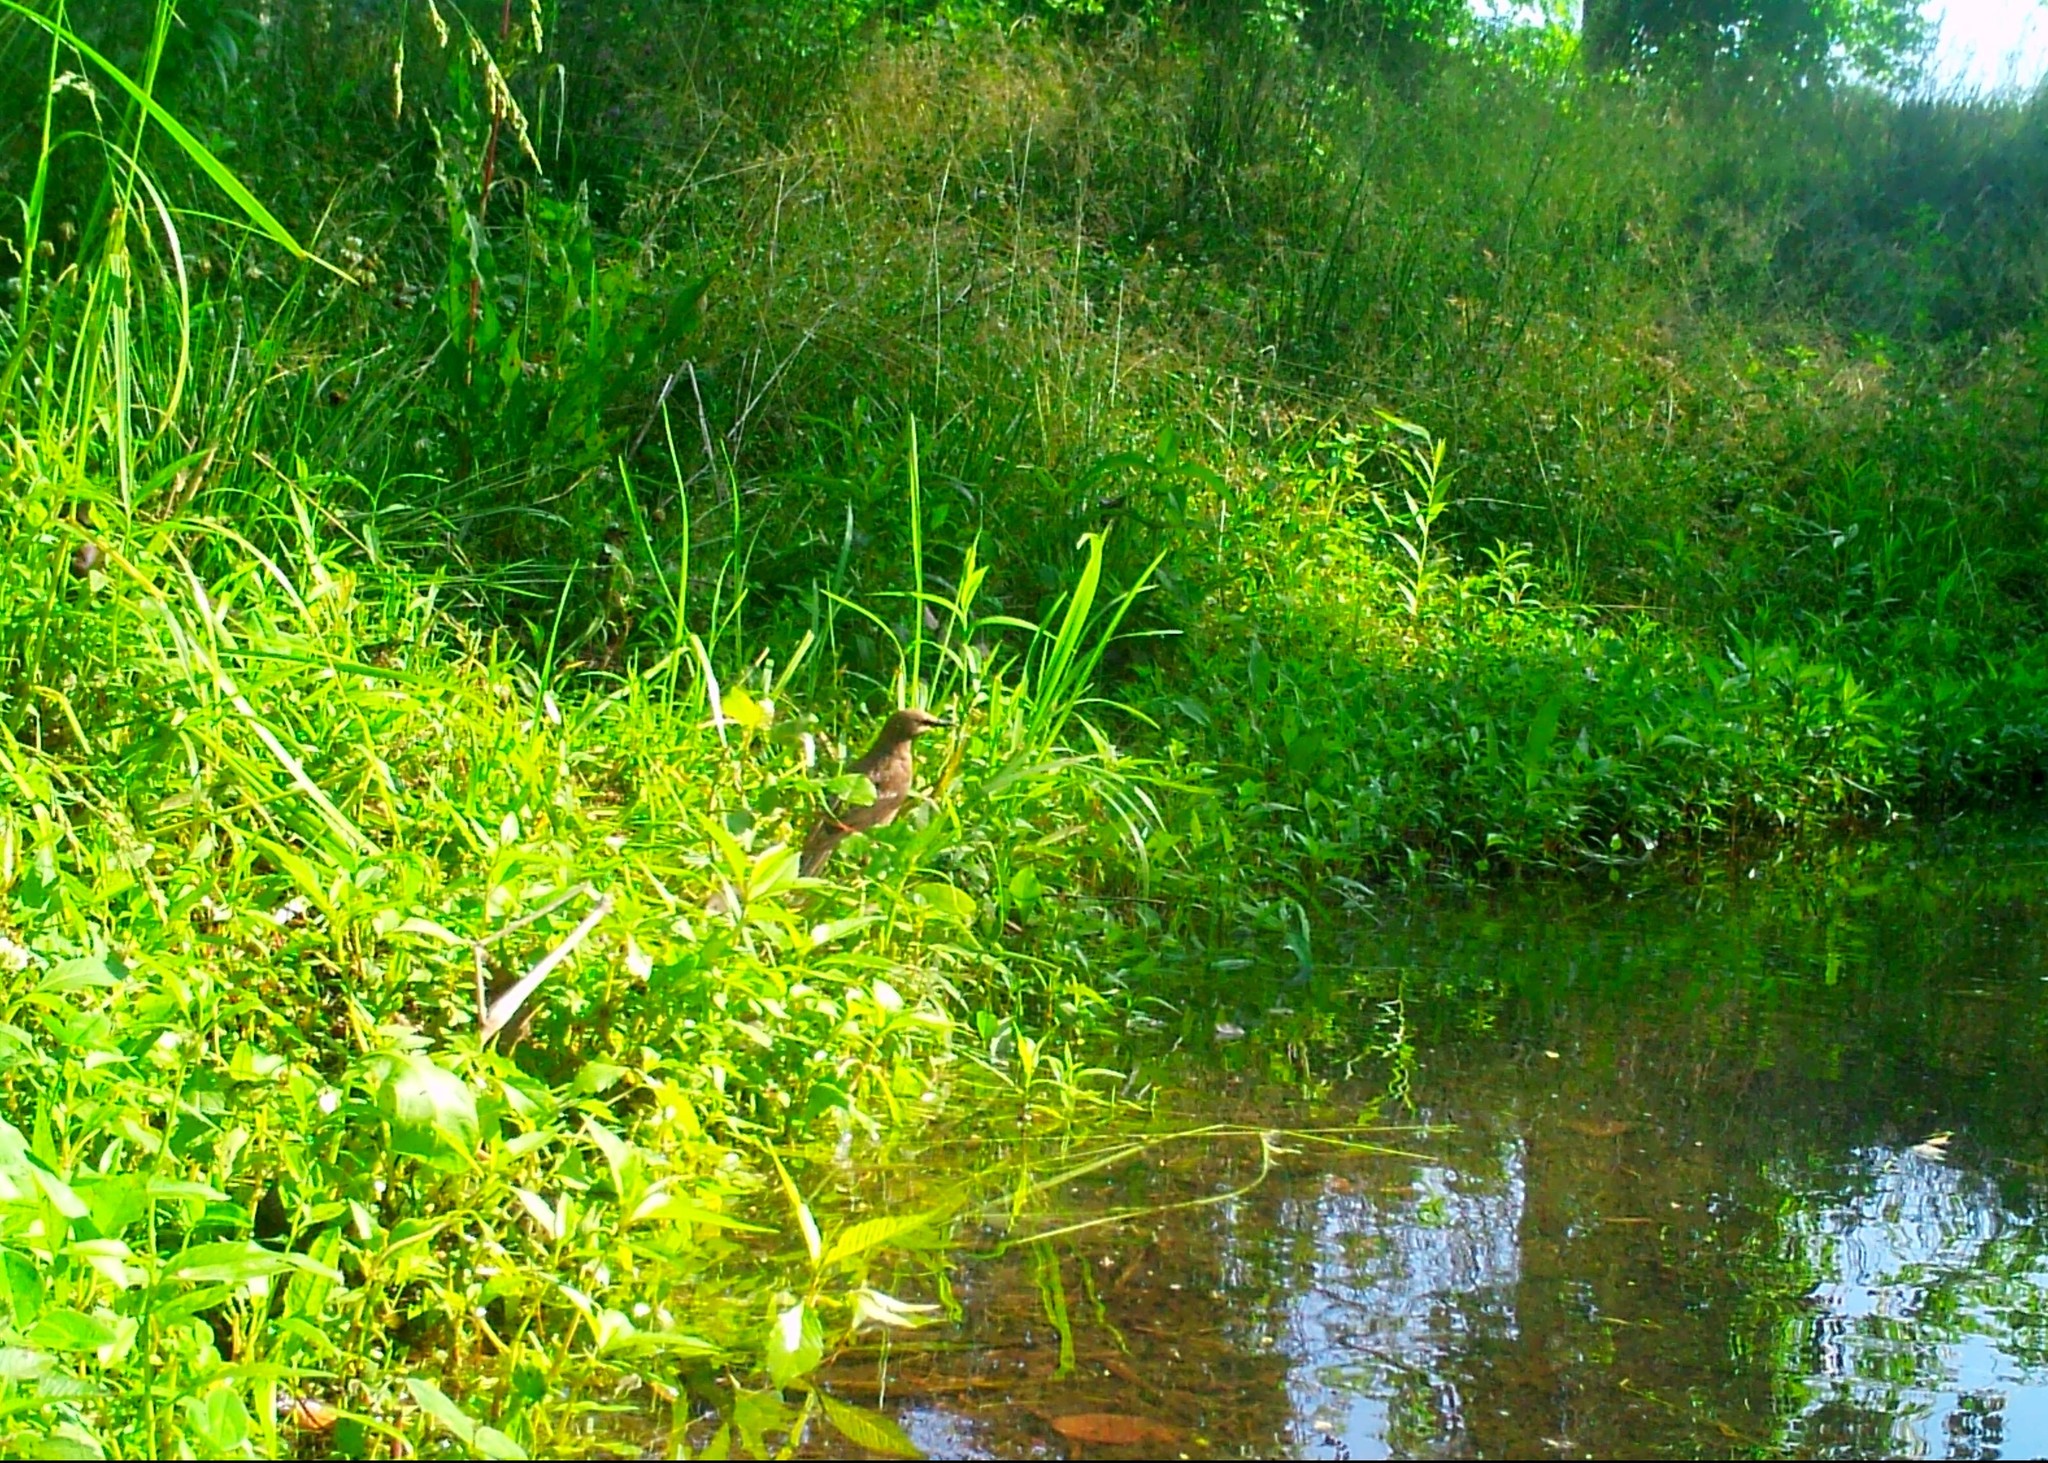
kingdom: Animalia
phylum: Chordata
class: Aves
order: Passeriformes
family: Sturnidae
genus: Sturnus
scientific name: Sturnus vulgaris
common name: Common starling
